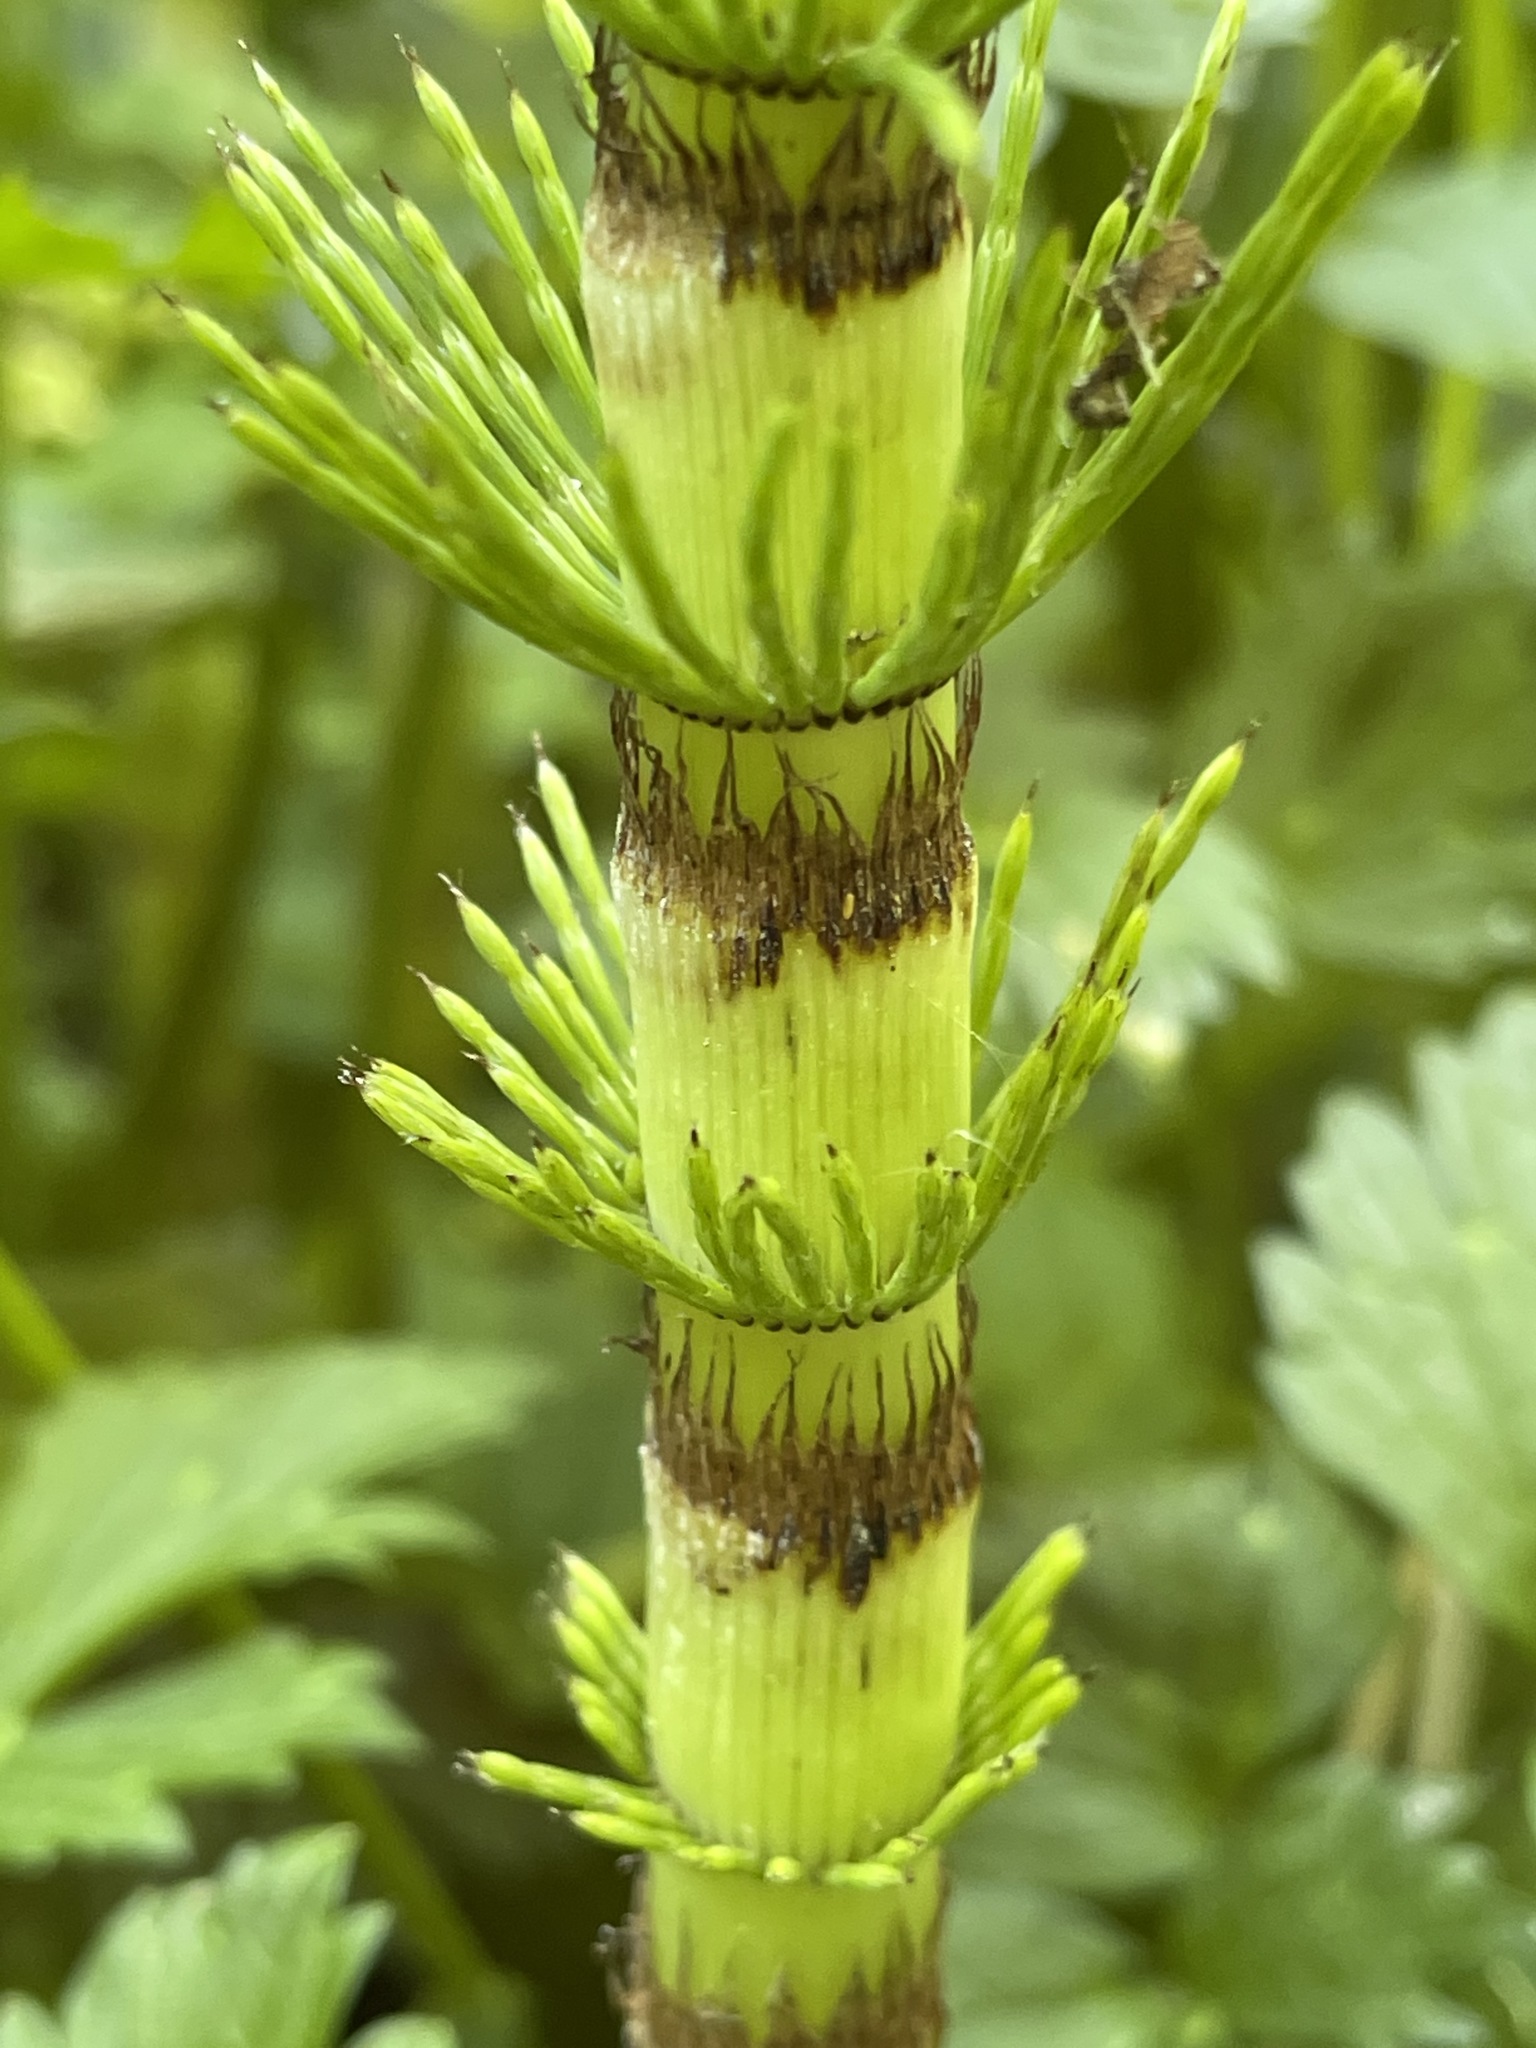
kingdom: Plantae
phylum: Tracheophyta
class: Polypodiopsida
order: Equisetales
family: Equisetaceae
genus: Equisetum
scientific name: Equisetum telmateia
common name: Great horsetail
